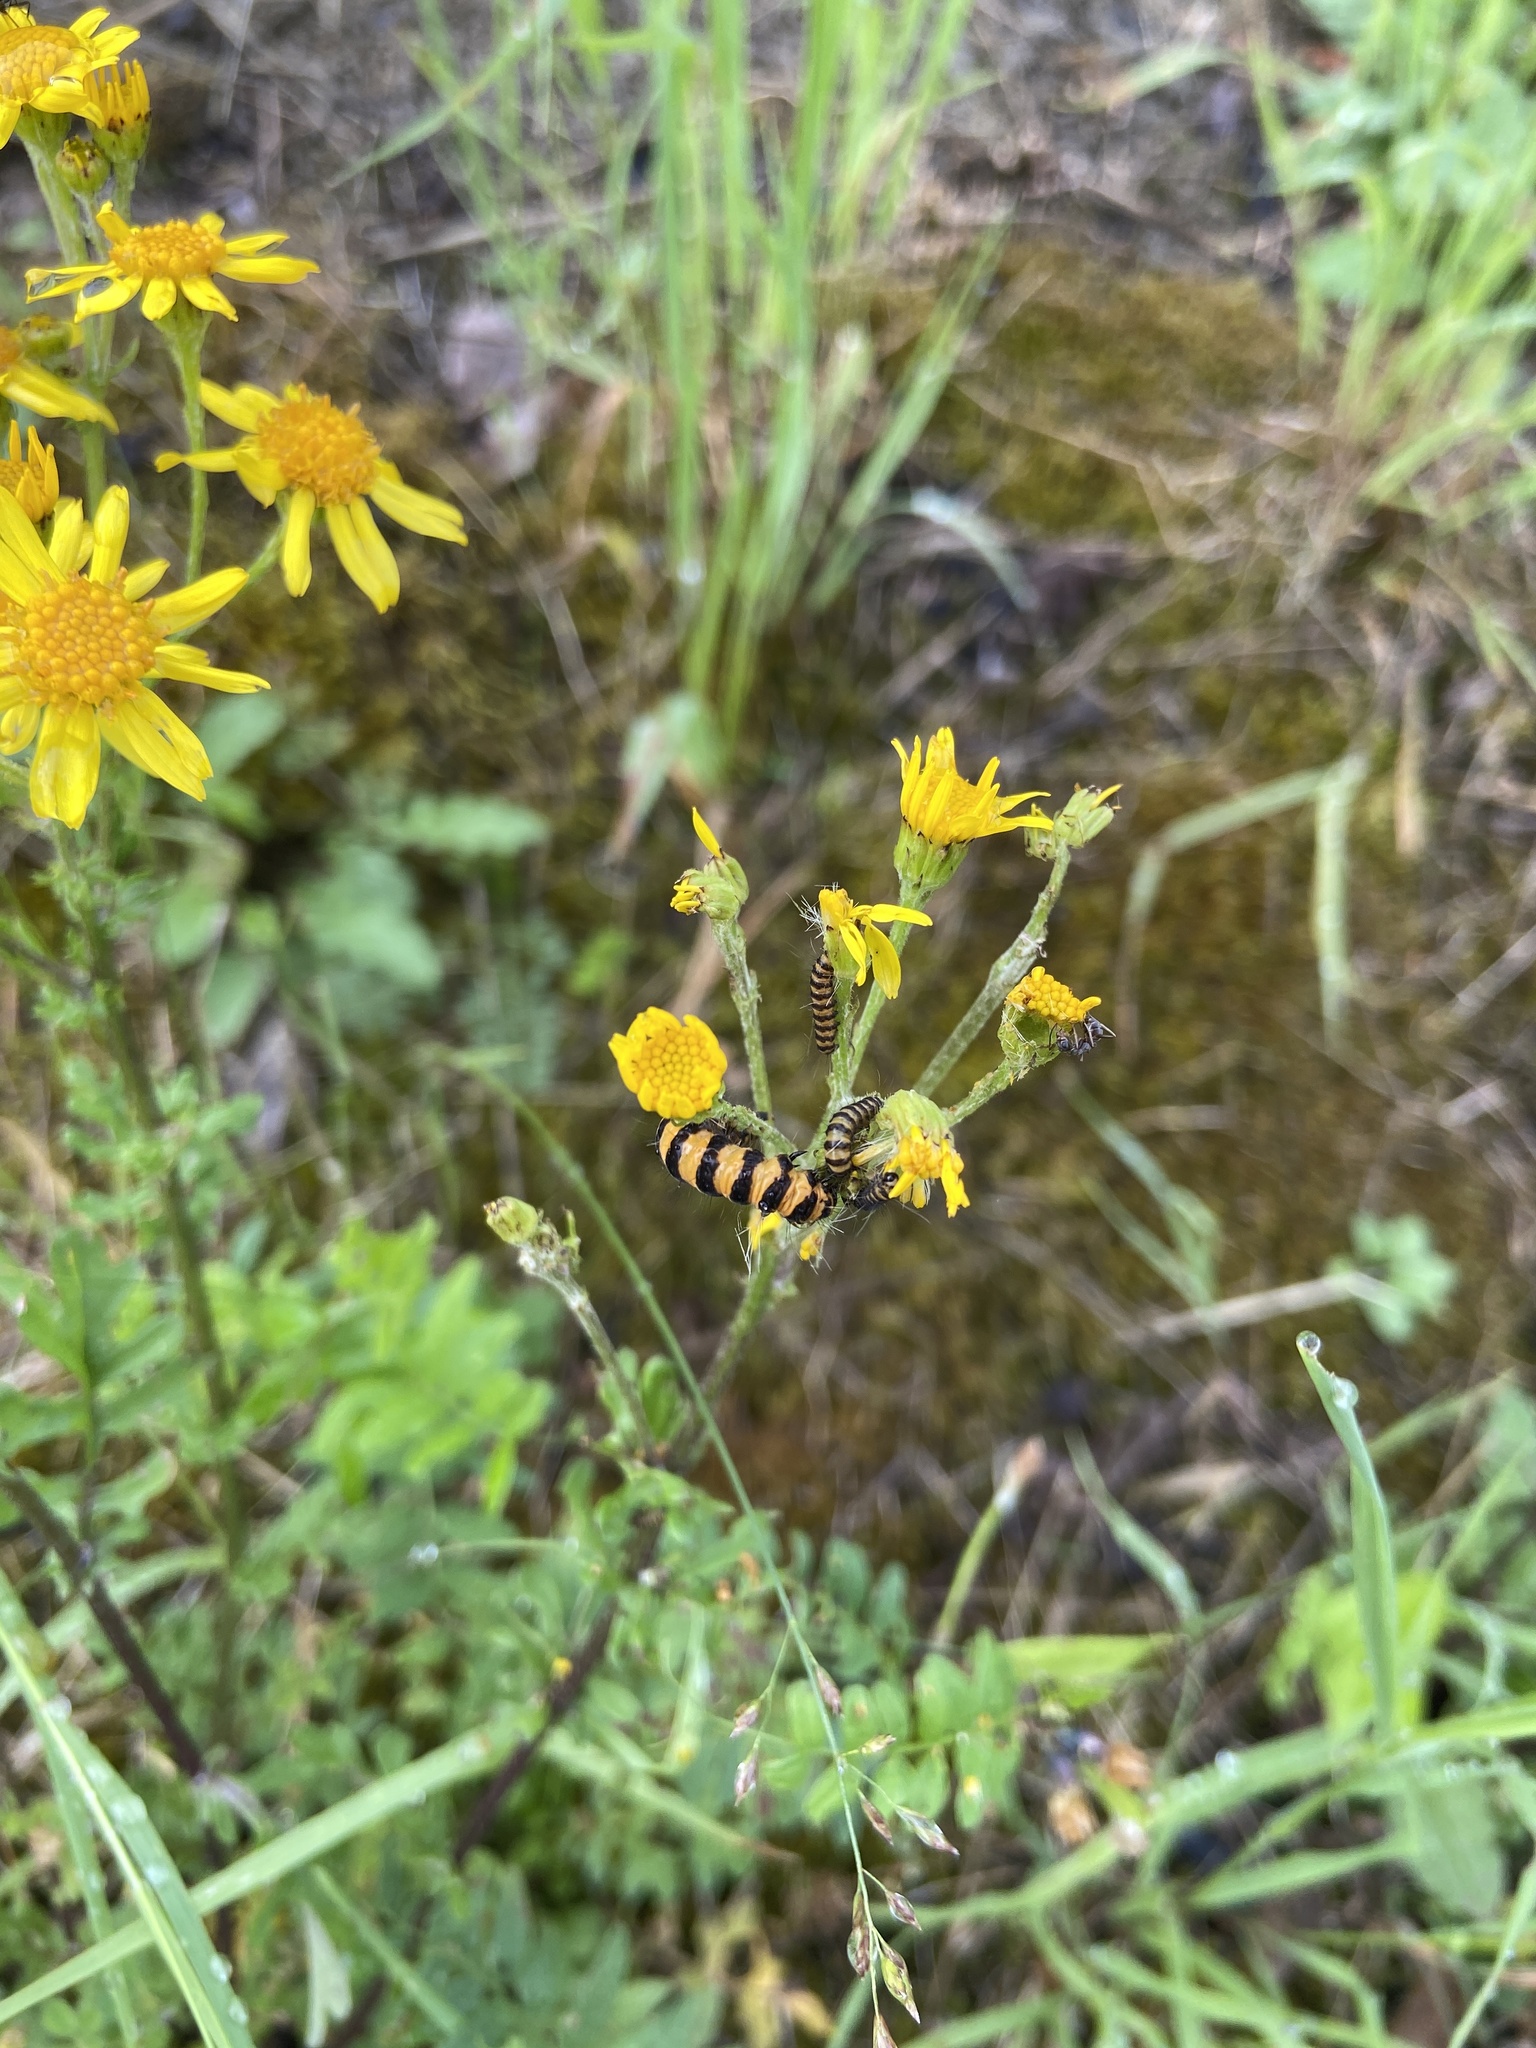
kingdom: Animalia
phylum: Arthropoda
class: Insecta
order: Lepidoptera
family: Erebidae
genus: Tyria
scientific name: Tyria jacobaeae
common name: Cinnabar
